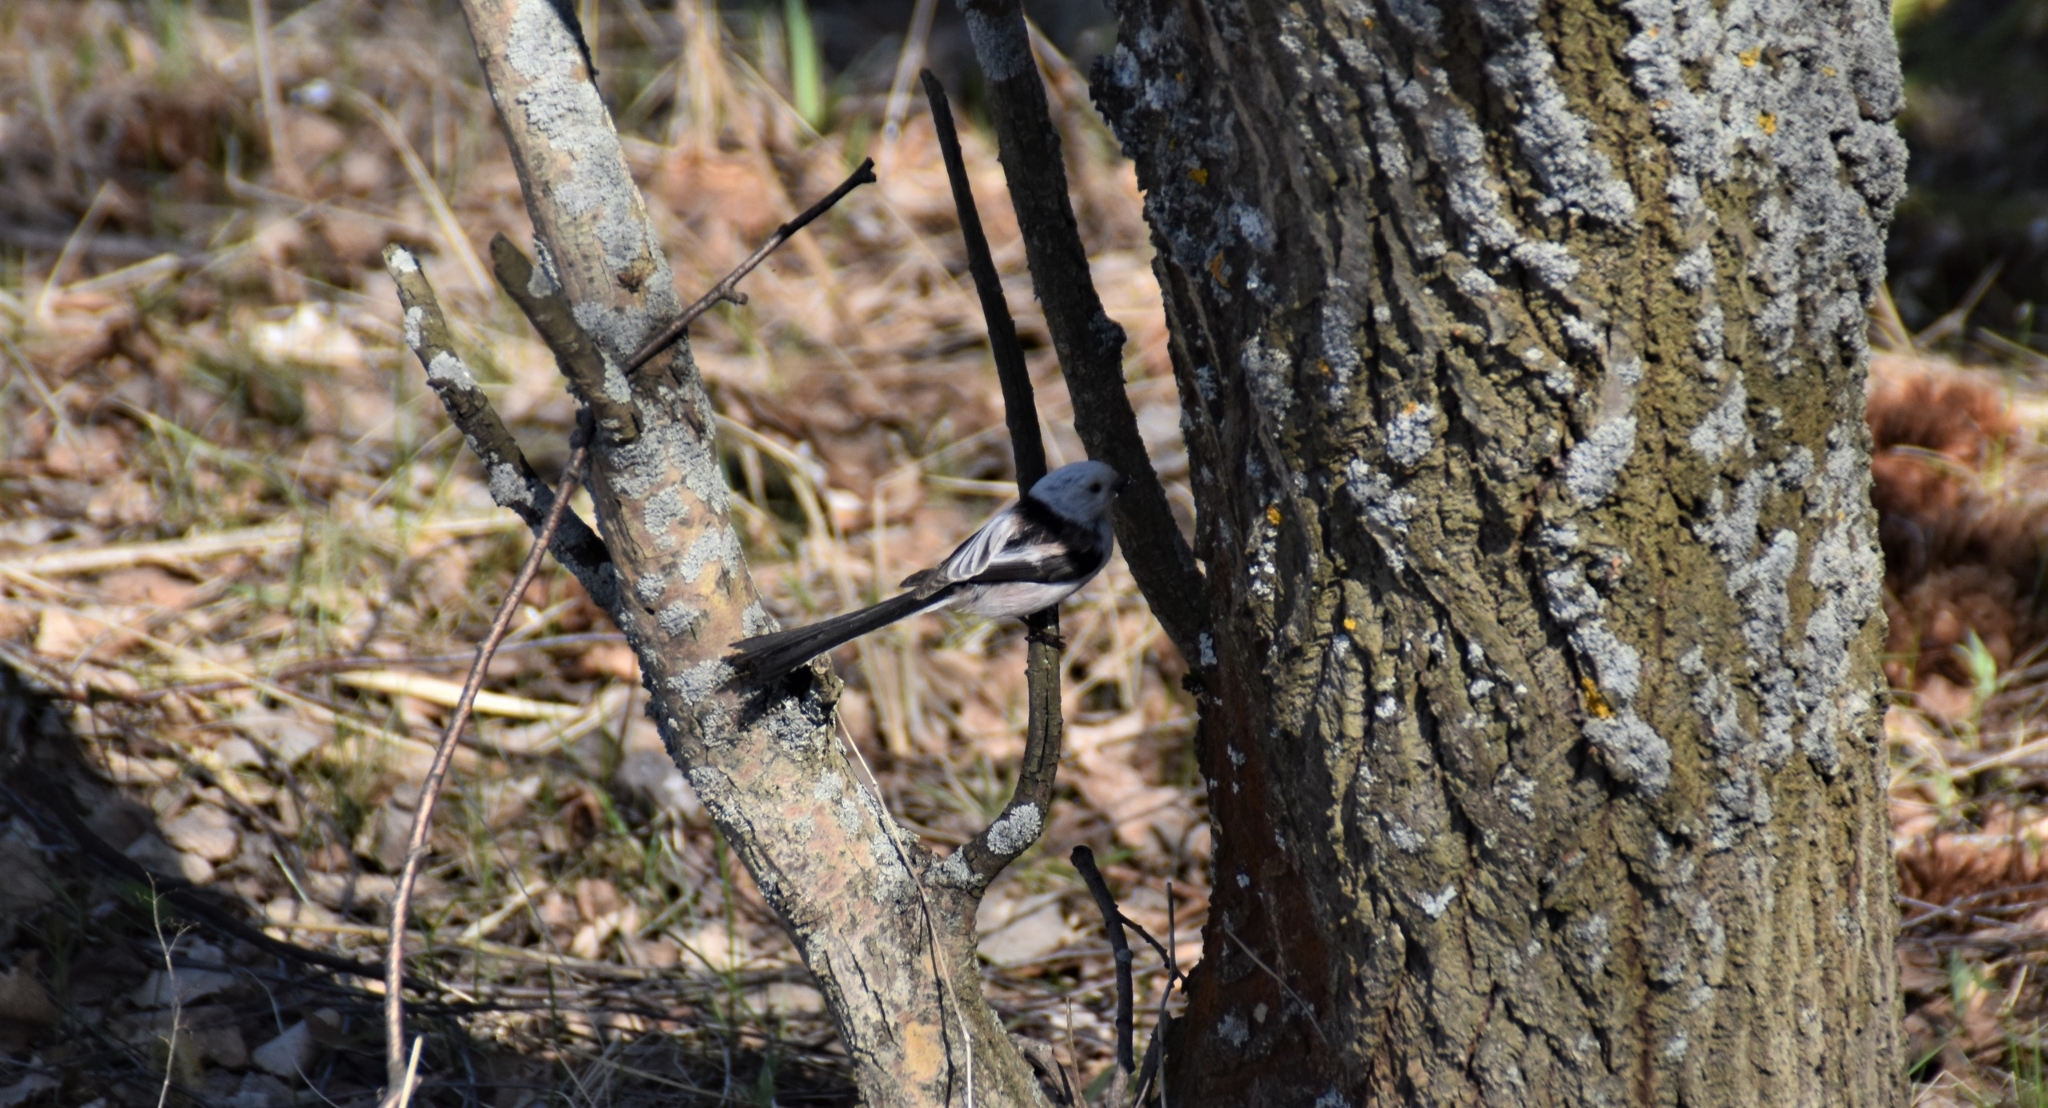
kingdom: Animalia
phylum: Chordata
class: Aves
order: Passeriformes
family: Aegithalidae
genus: Aegithalos
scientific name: Aegithalos caudatus
